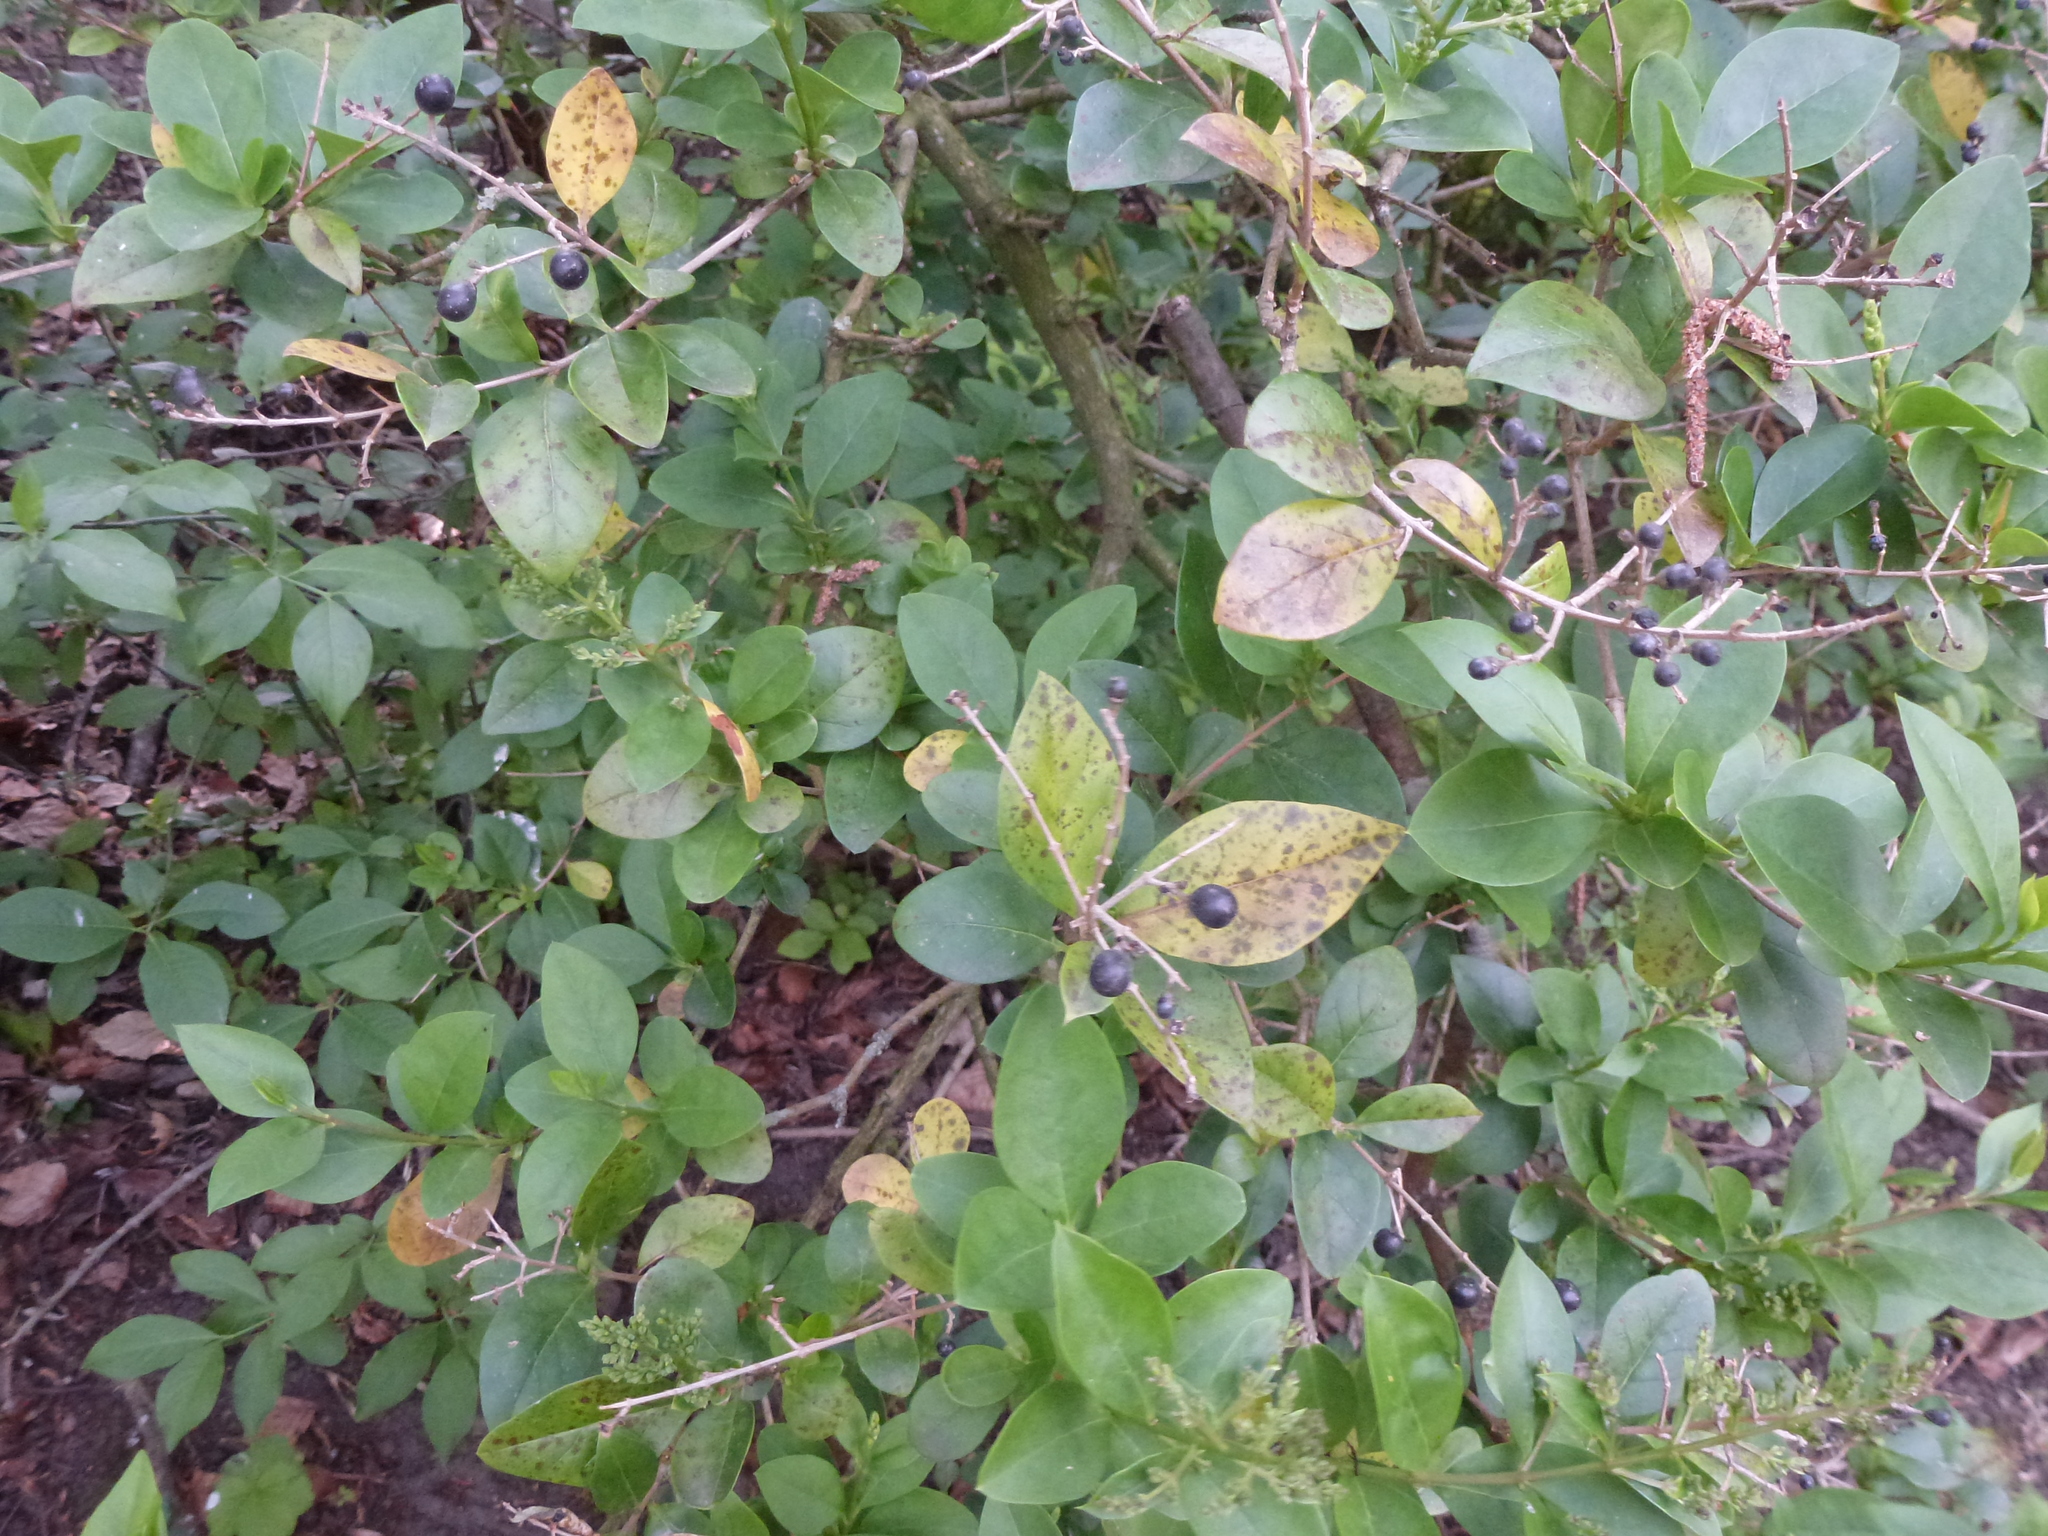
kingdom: Plantae
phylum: Tracheophyta
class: Magnoliopsida
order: Lamiales
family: Oleaceae
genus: Ligustrum
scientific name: Ligustrum ovalifolium
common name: California privet
